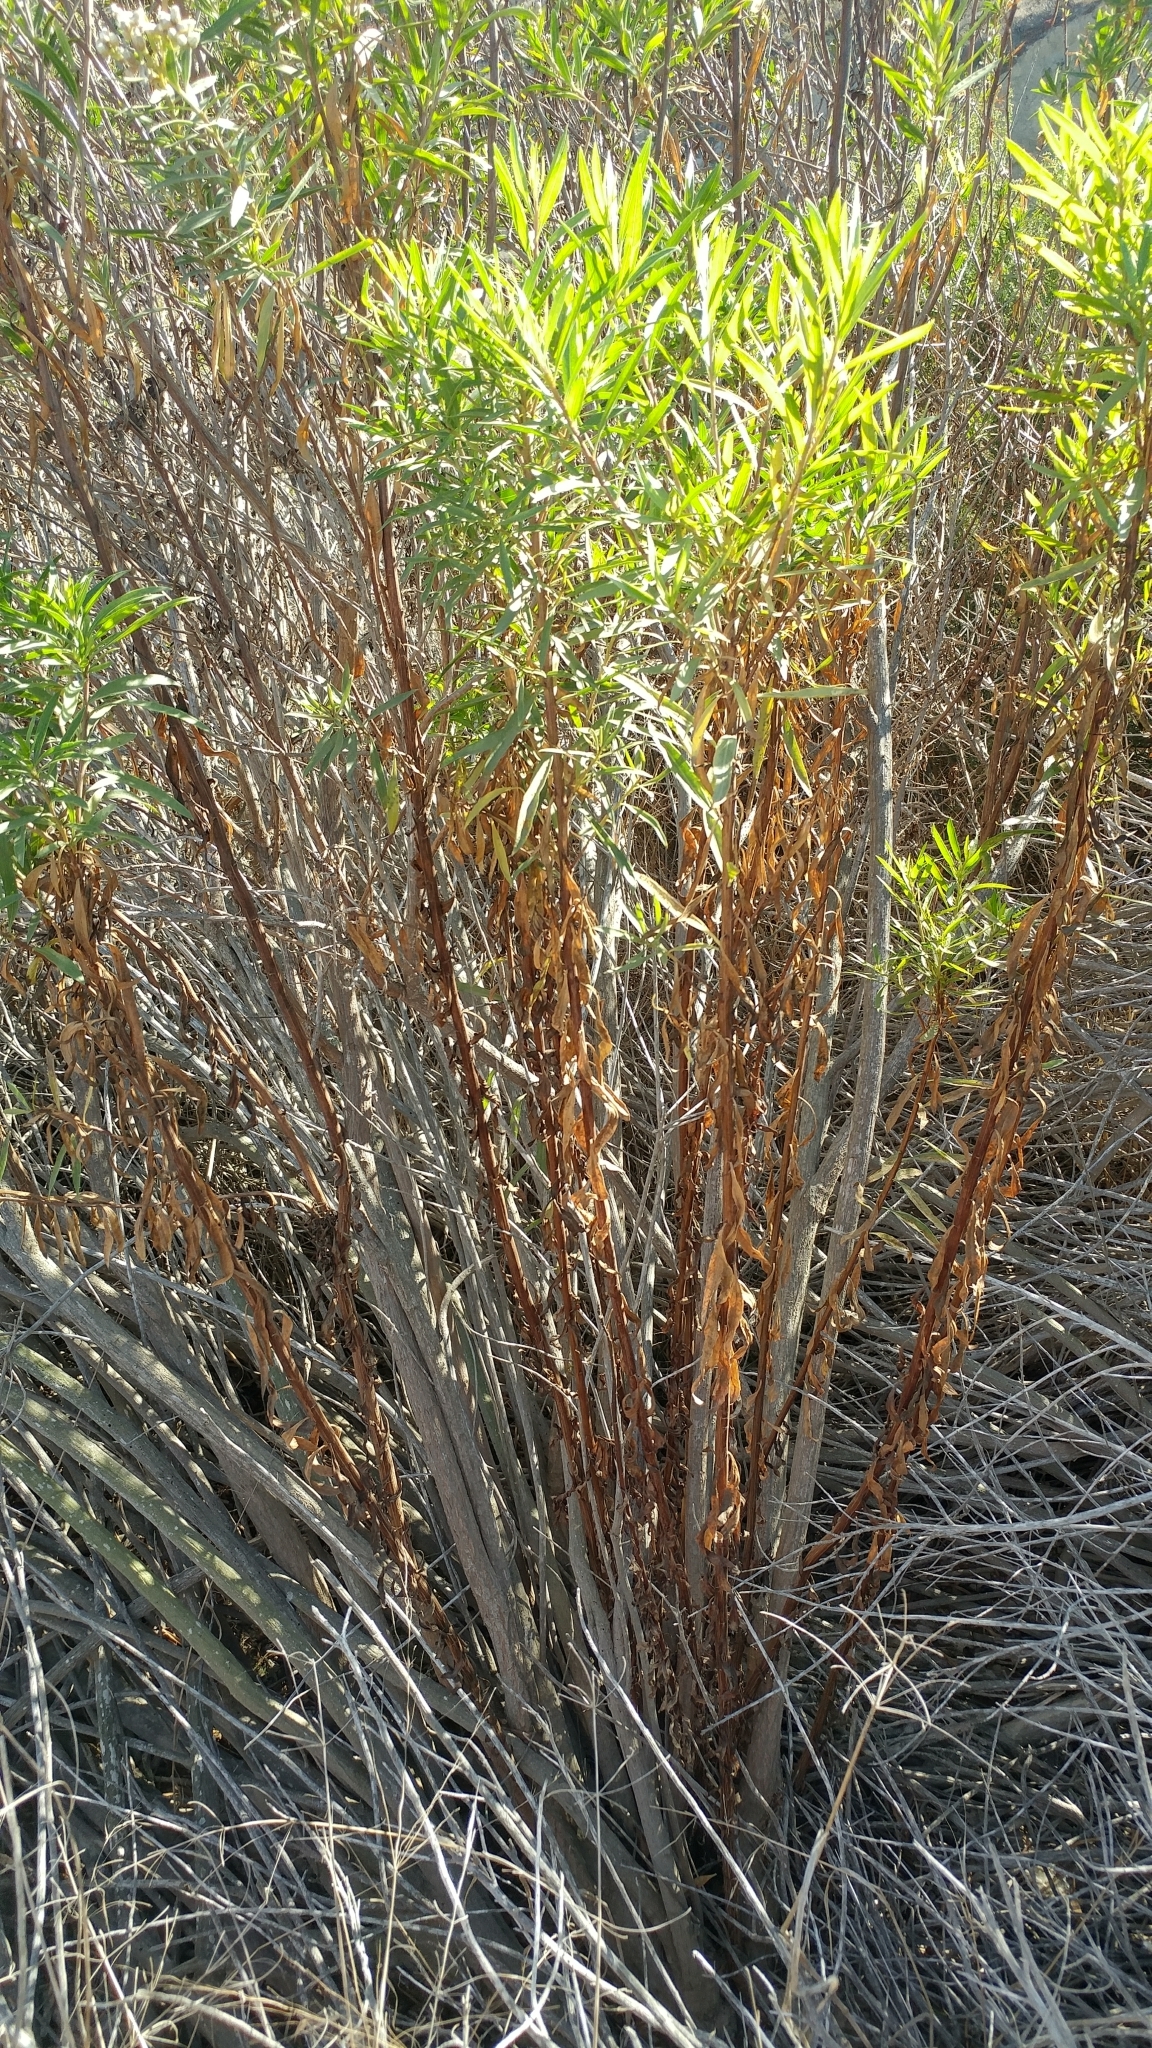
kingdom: Plantae
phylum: Tracheophyta
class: Magnoliopsida
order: Asterales
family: Asteraceae
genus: Baccharis
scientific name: Baccharis salicifolia
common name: Sticky baccharis
